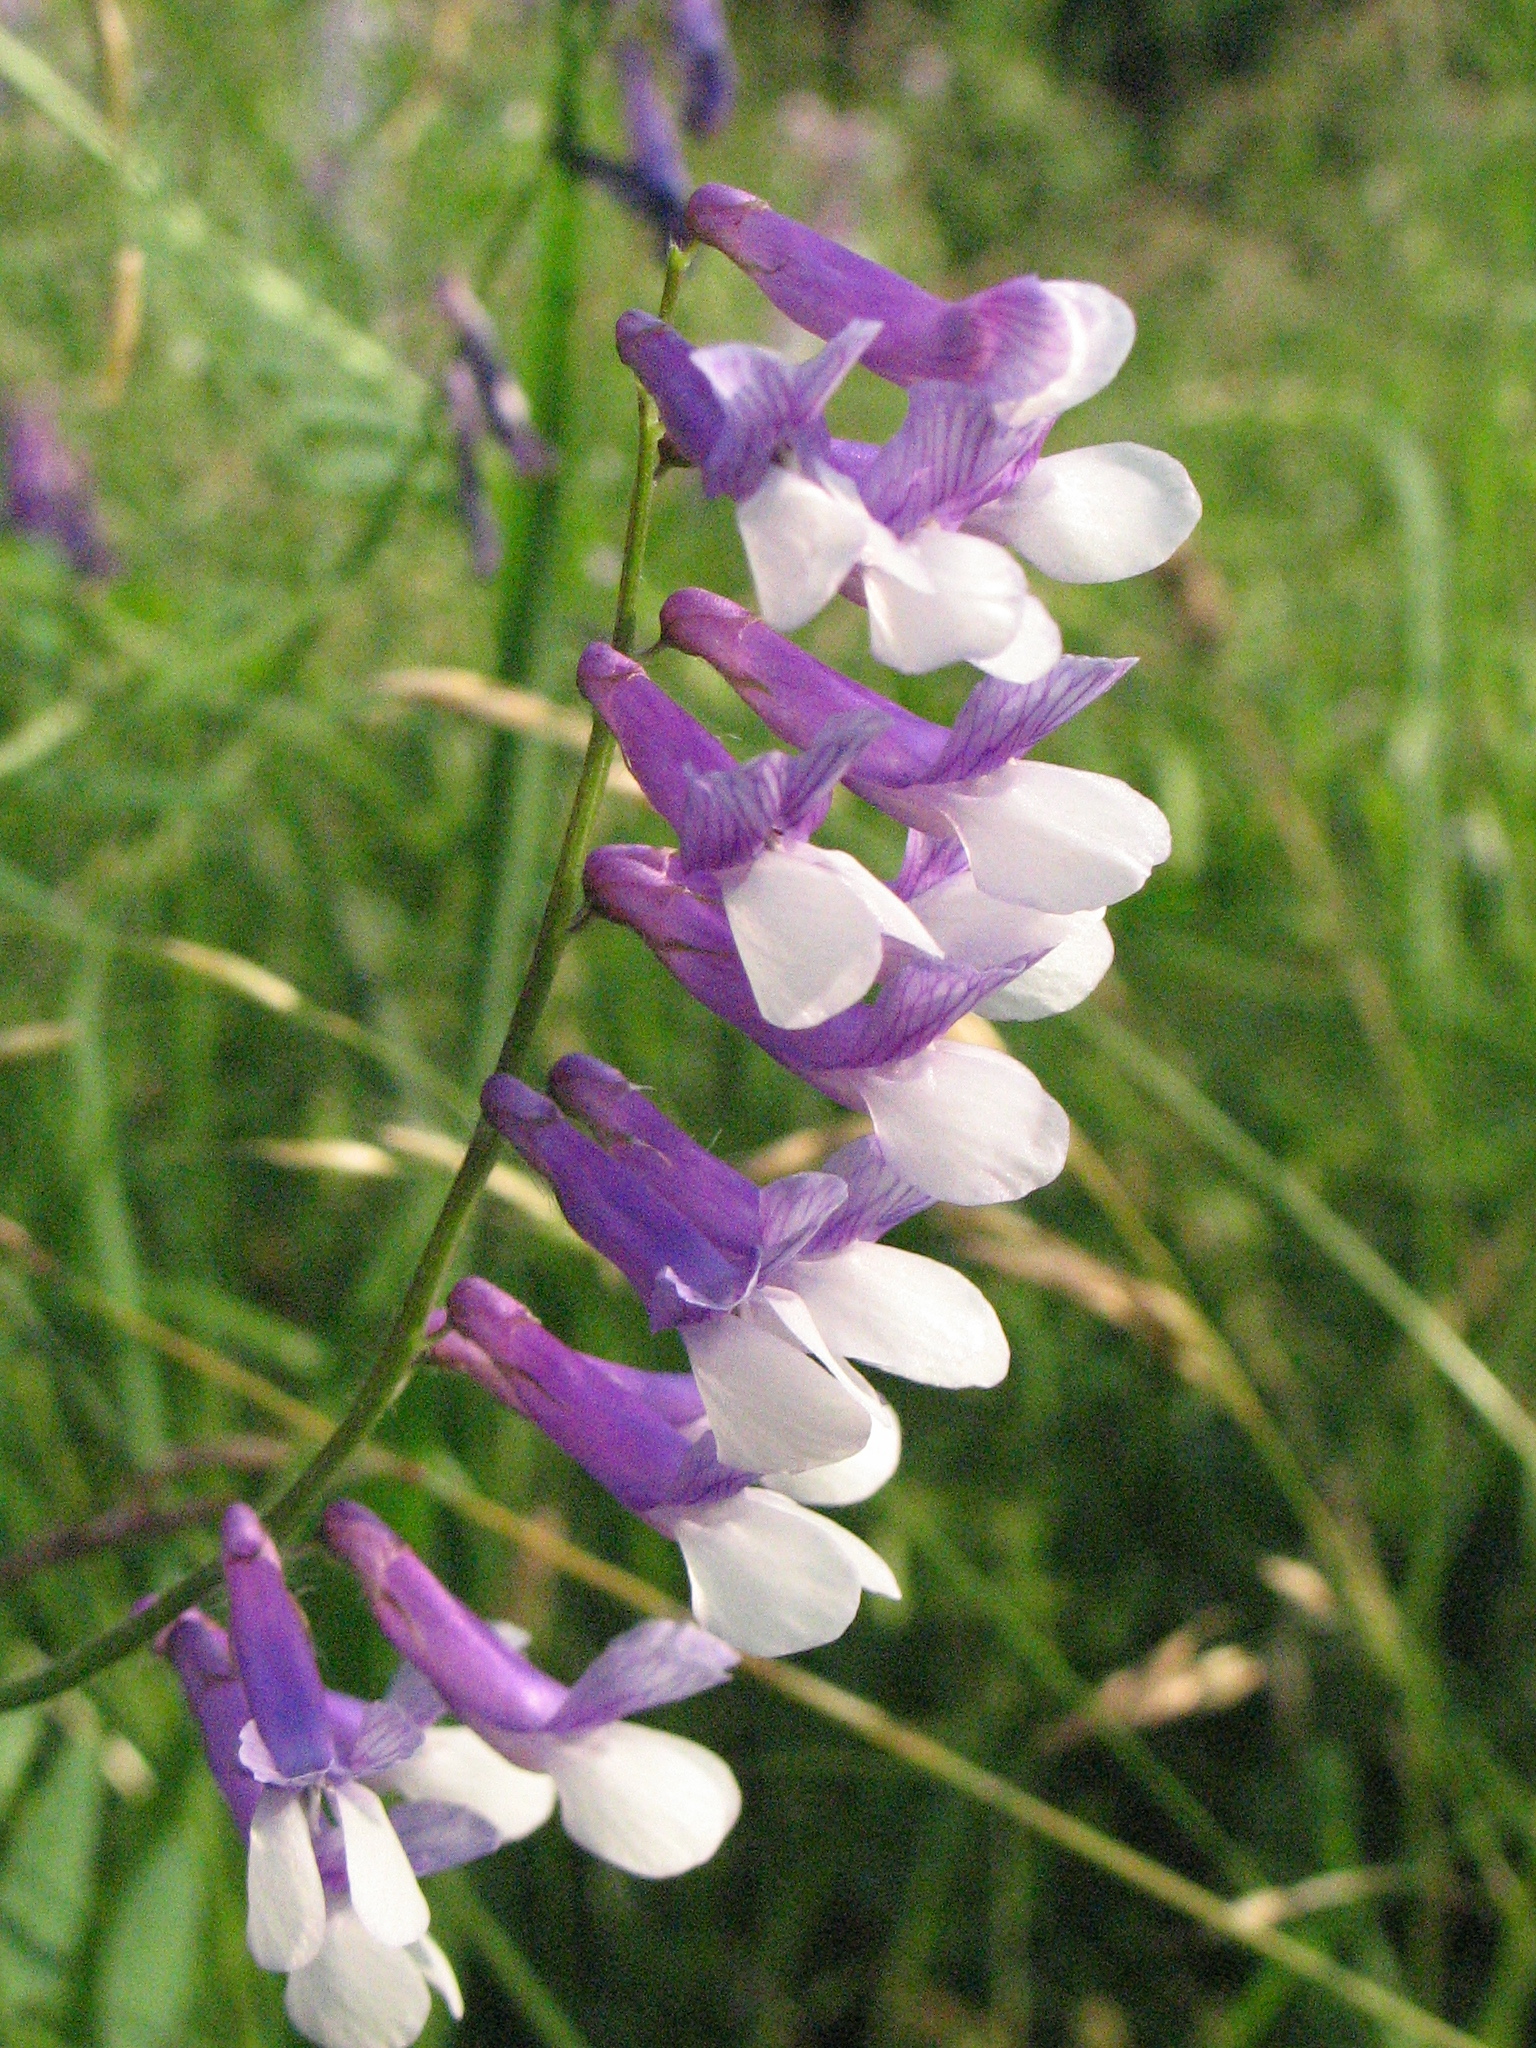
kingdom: Plantae
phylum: Tracheophyta
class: Magnoliopsida
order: Fabales
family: Fabaceae
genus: Vicia
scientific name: Vicia villosa
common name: Fodder vetch
